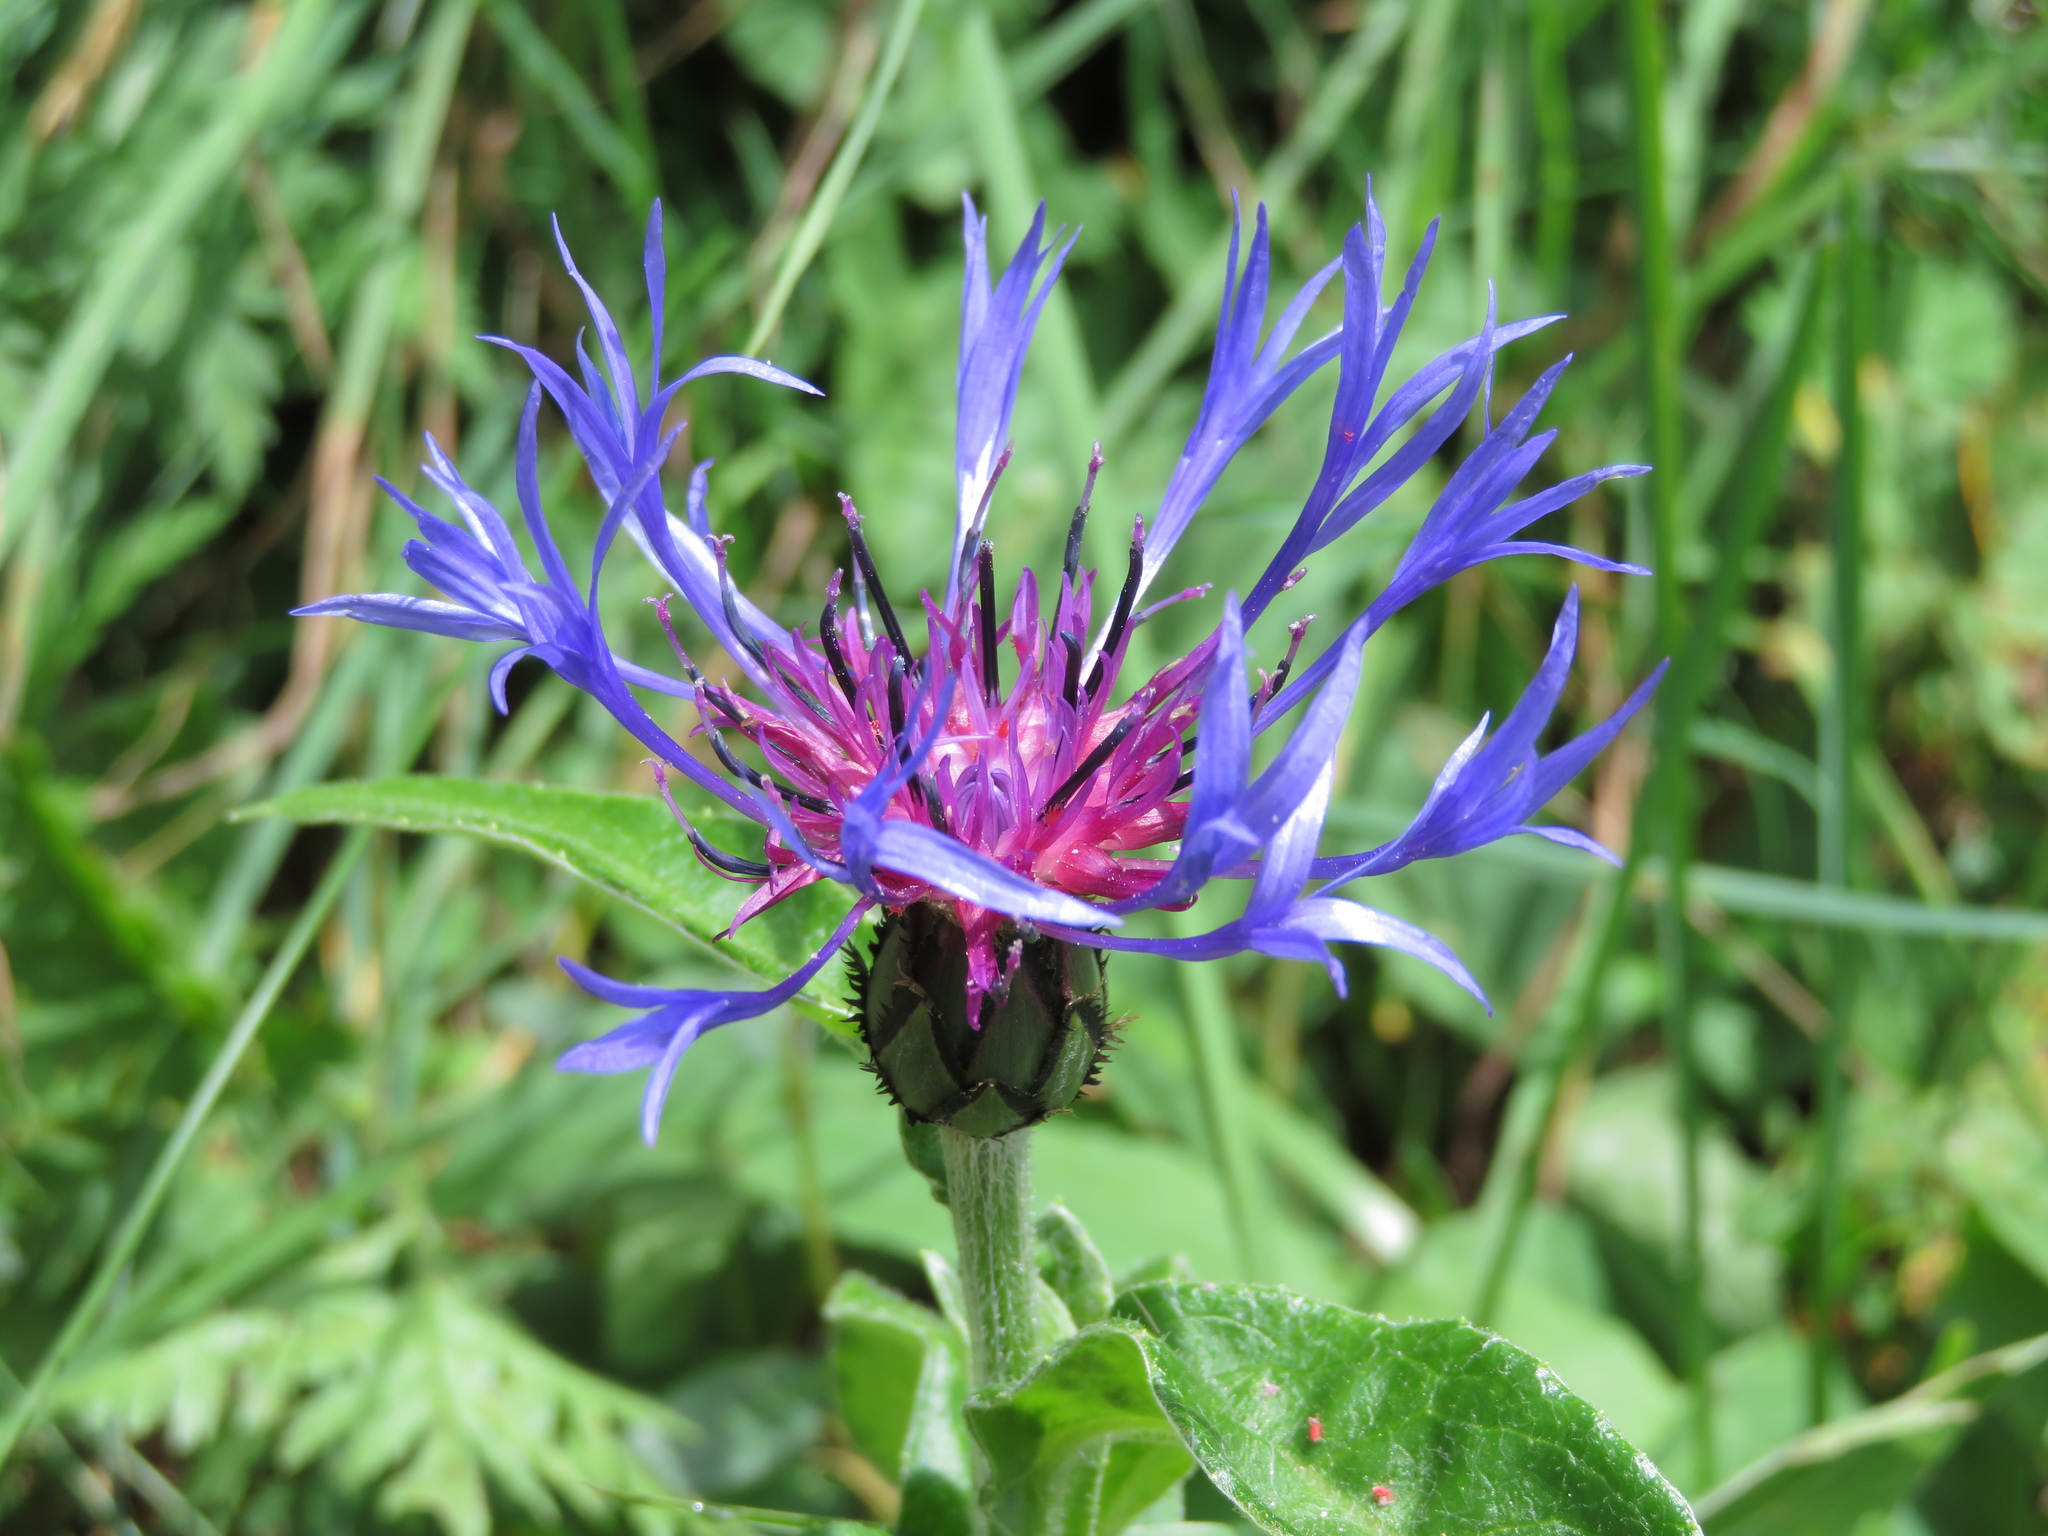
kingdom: Plantae
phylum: Tracheophyta
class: Magnoliopsida
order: Asterales
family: Asteraceae
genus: Centaurea
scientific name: Centaurea montana
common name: Perennial cornflower
